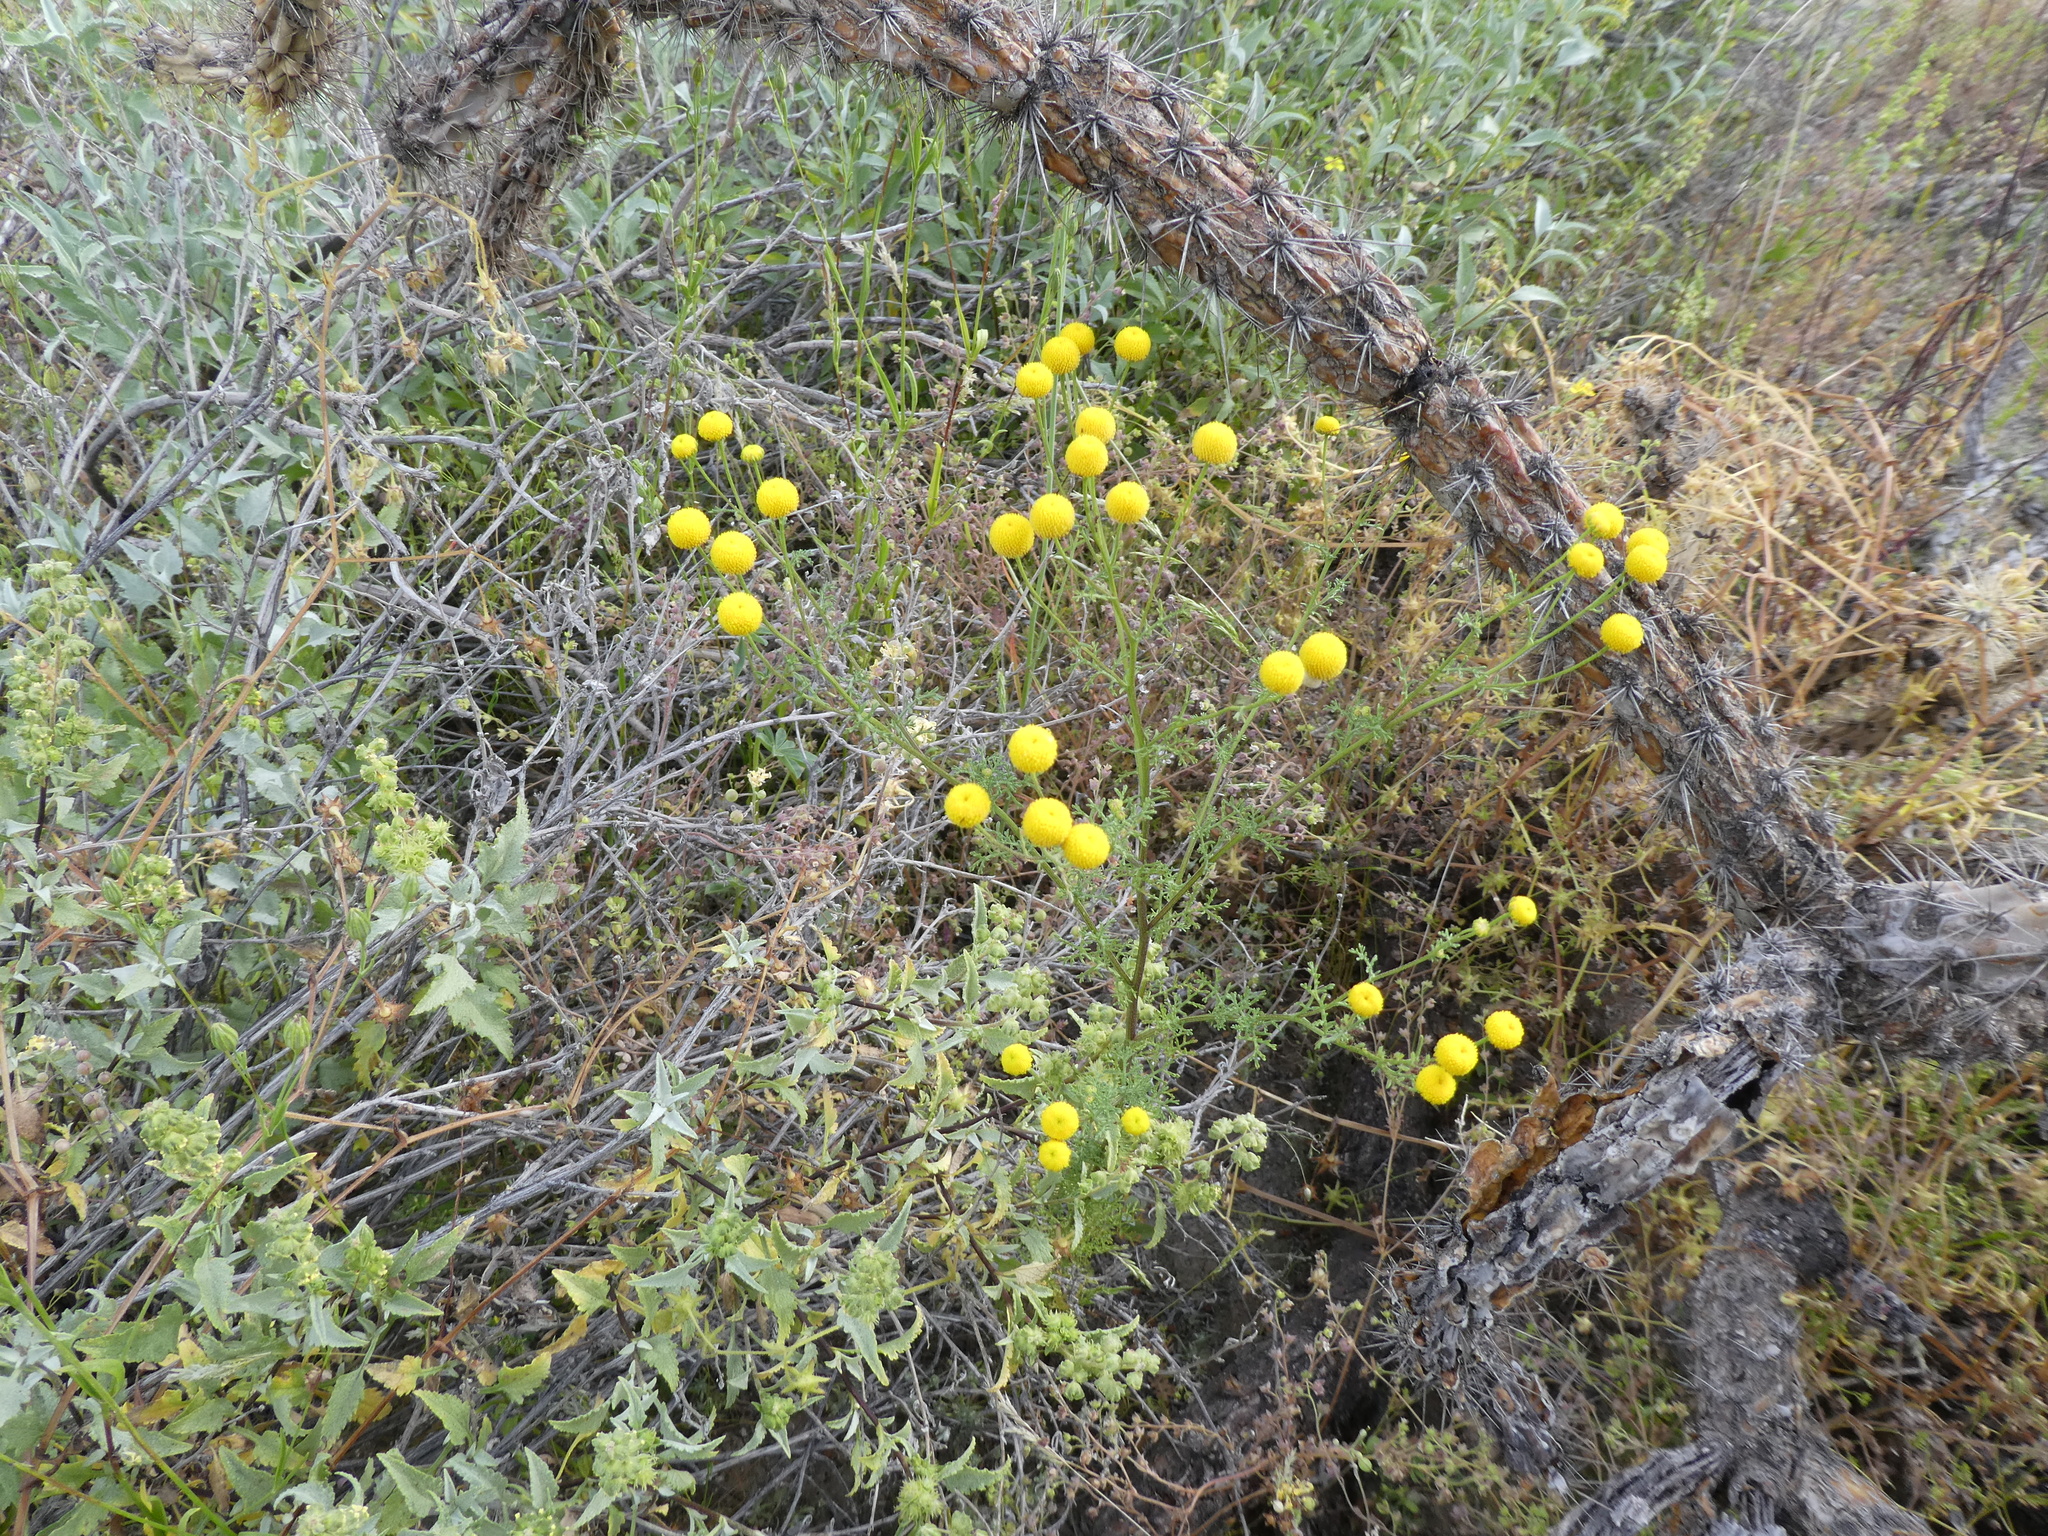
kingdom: Plantae
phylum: Tracheophyta
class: Magnoliopsida
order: Asterales
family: Asteraceae
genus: Oncosiphon
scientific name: Oncosiphon pilulifer
